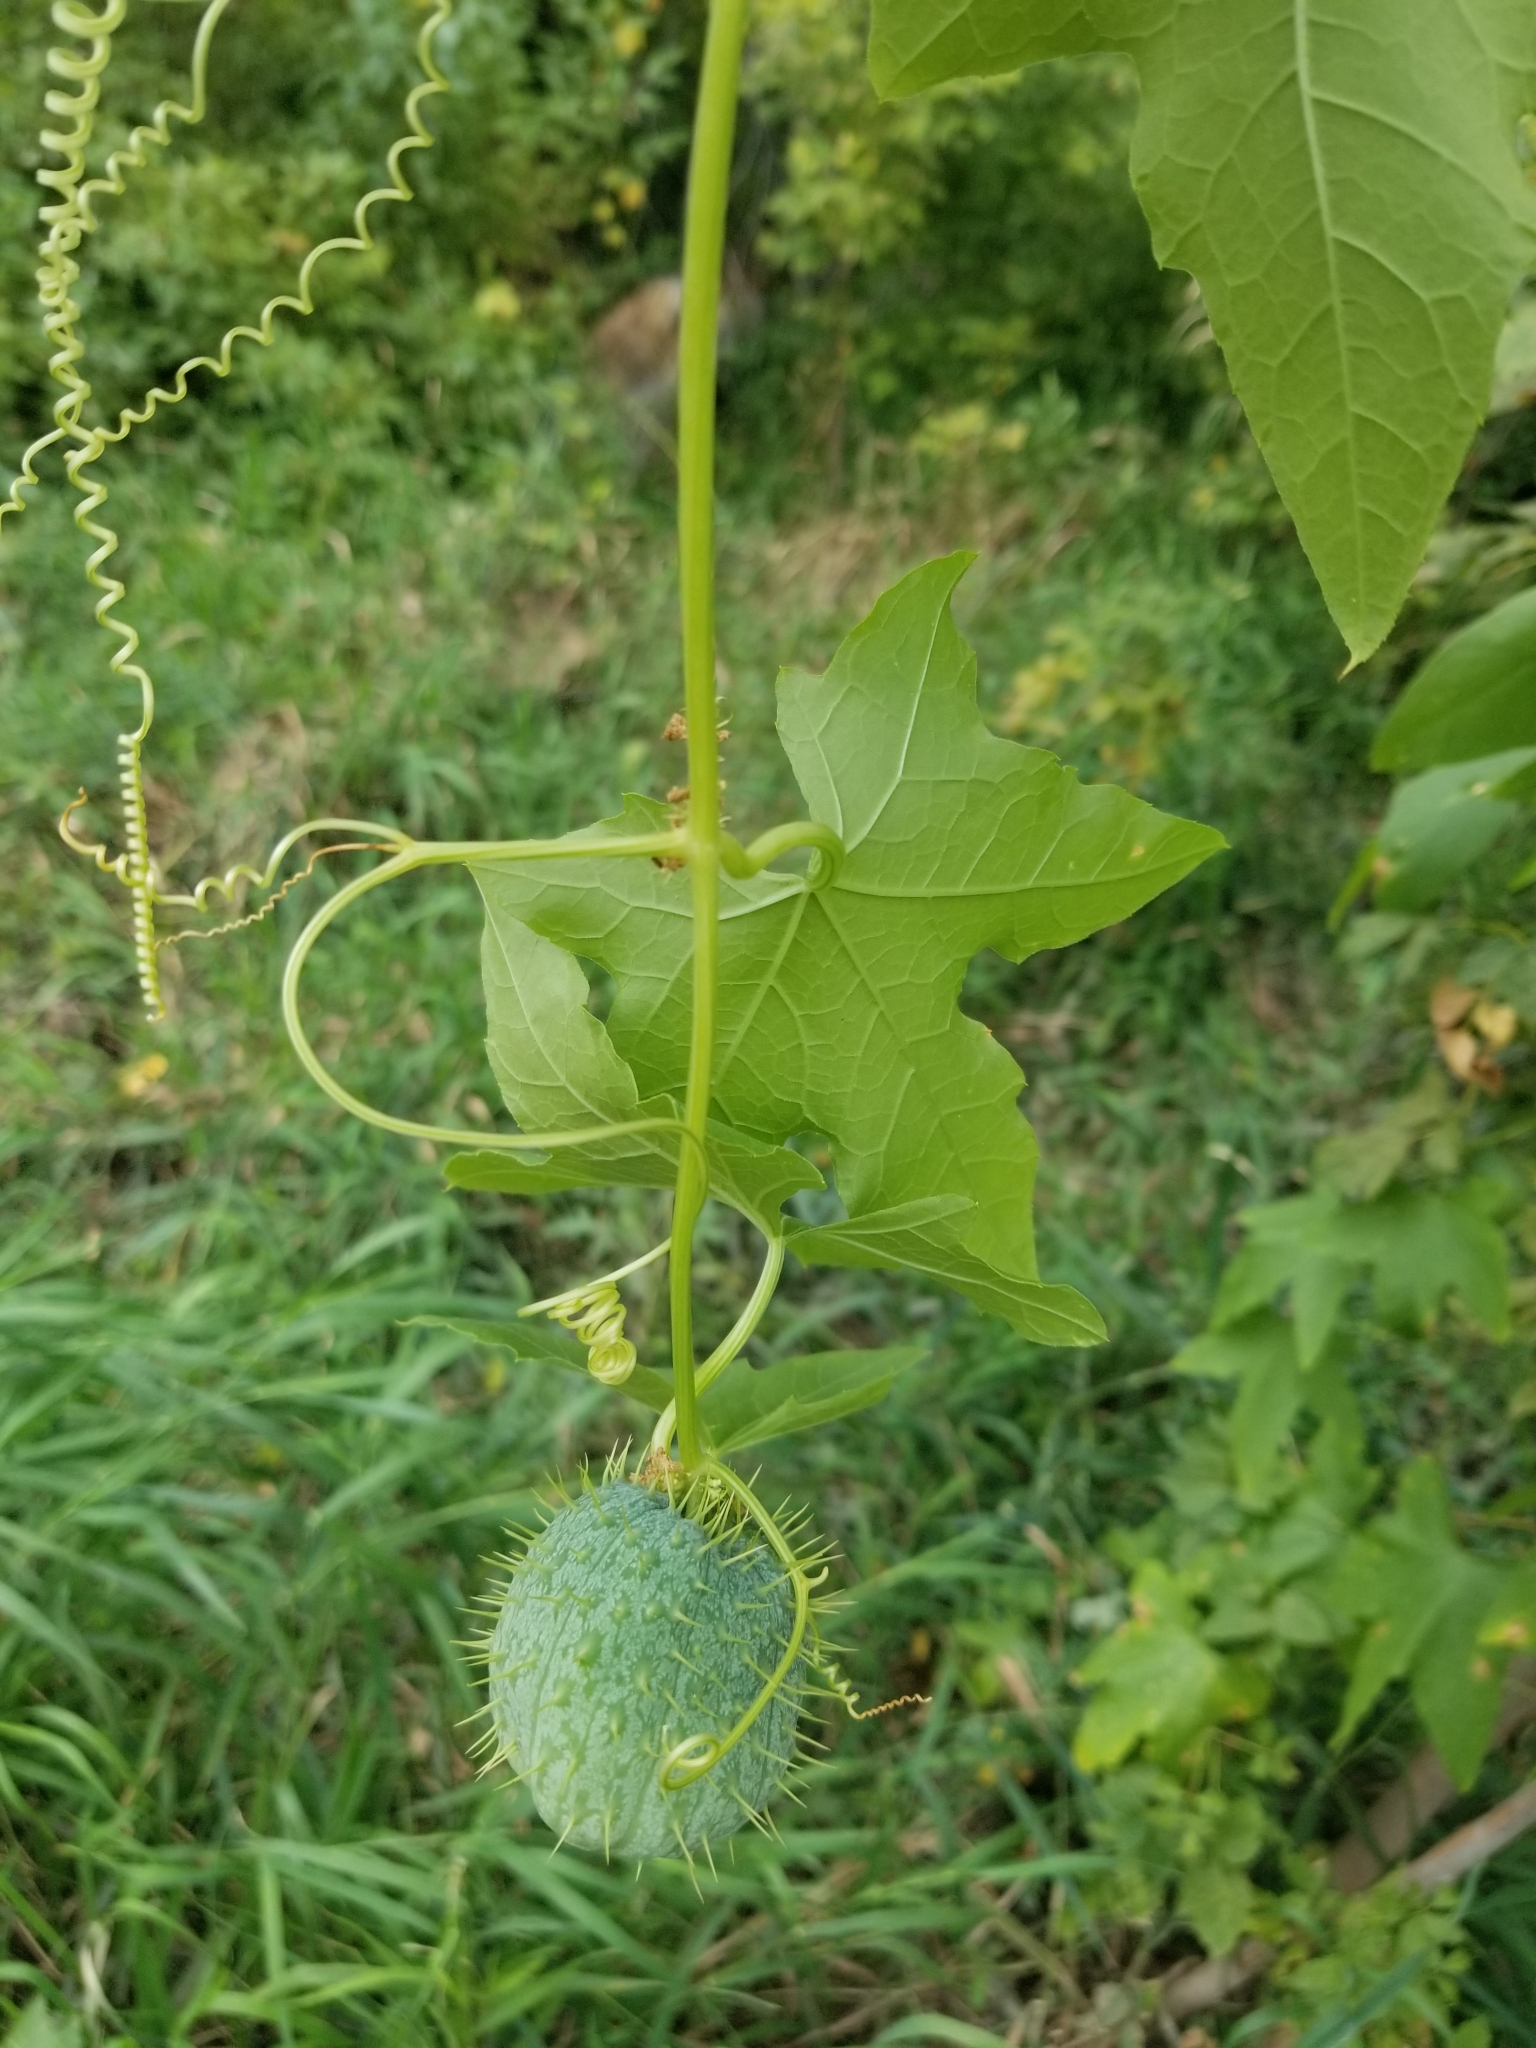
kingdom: Plantae
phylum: Tracheophyta
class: Magnoliopsida
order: Cucurbitales
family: Cucurbitaceae
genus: Echinocystis
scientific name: Echinocystis lobata
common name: Wild cucumber
